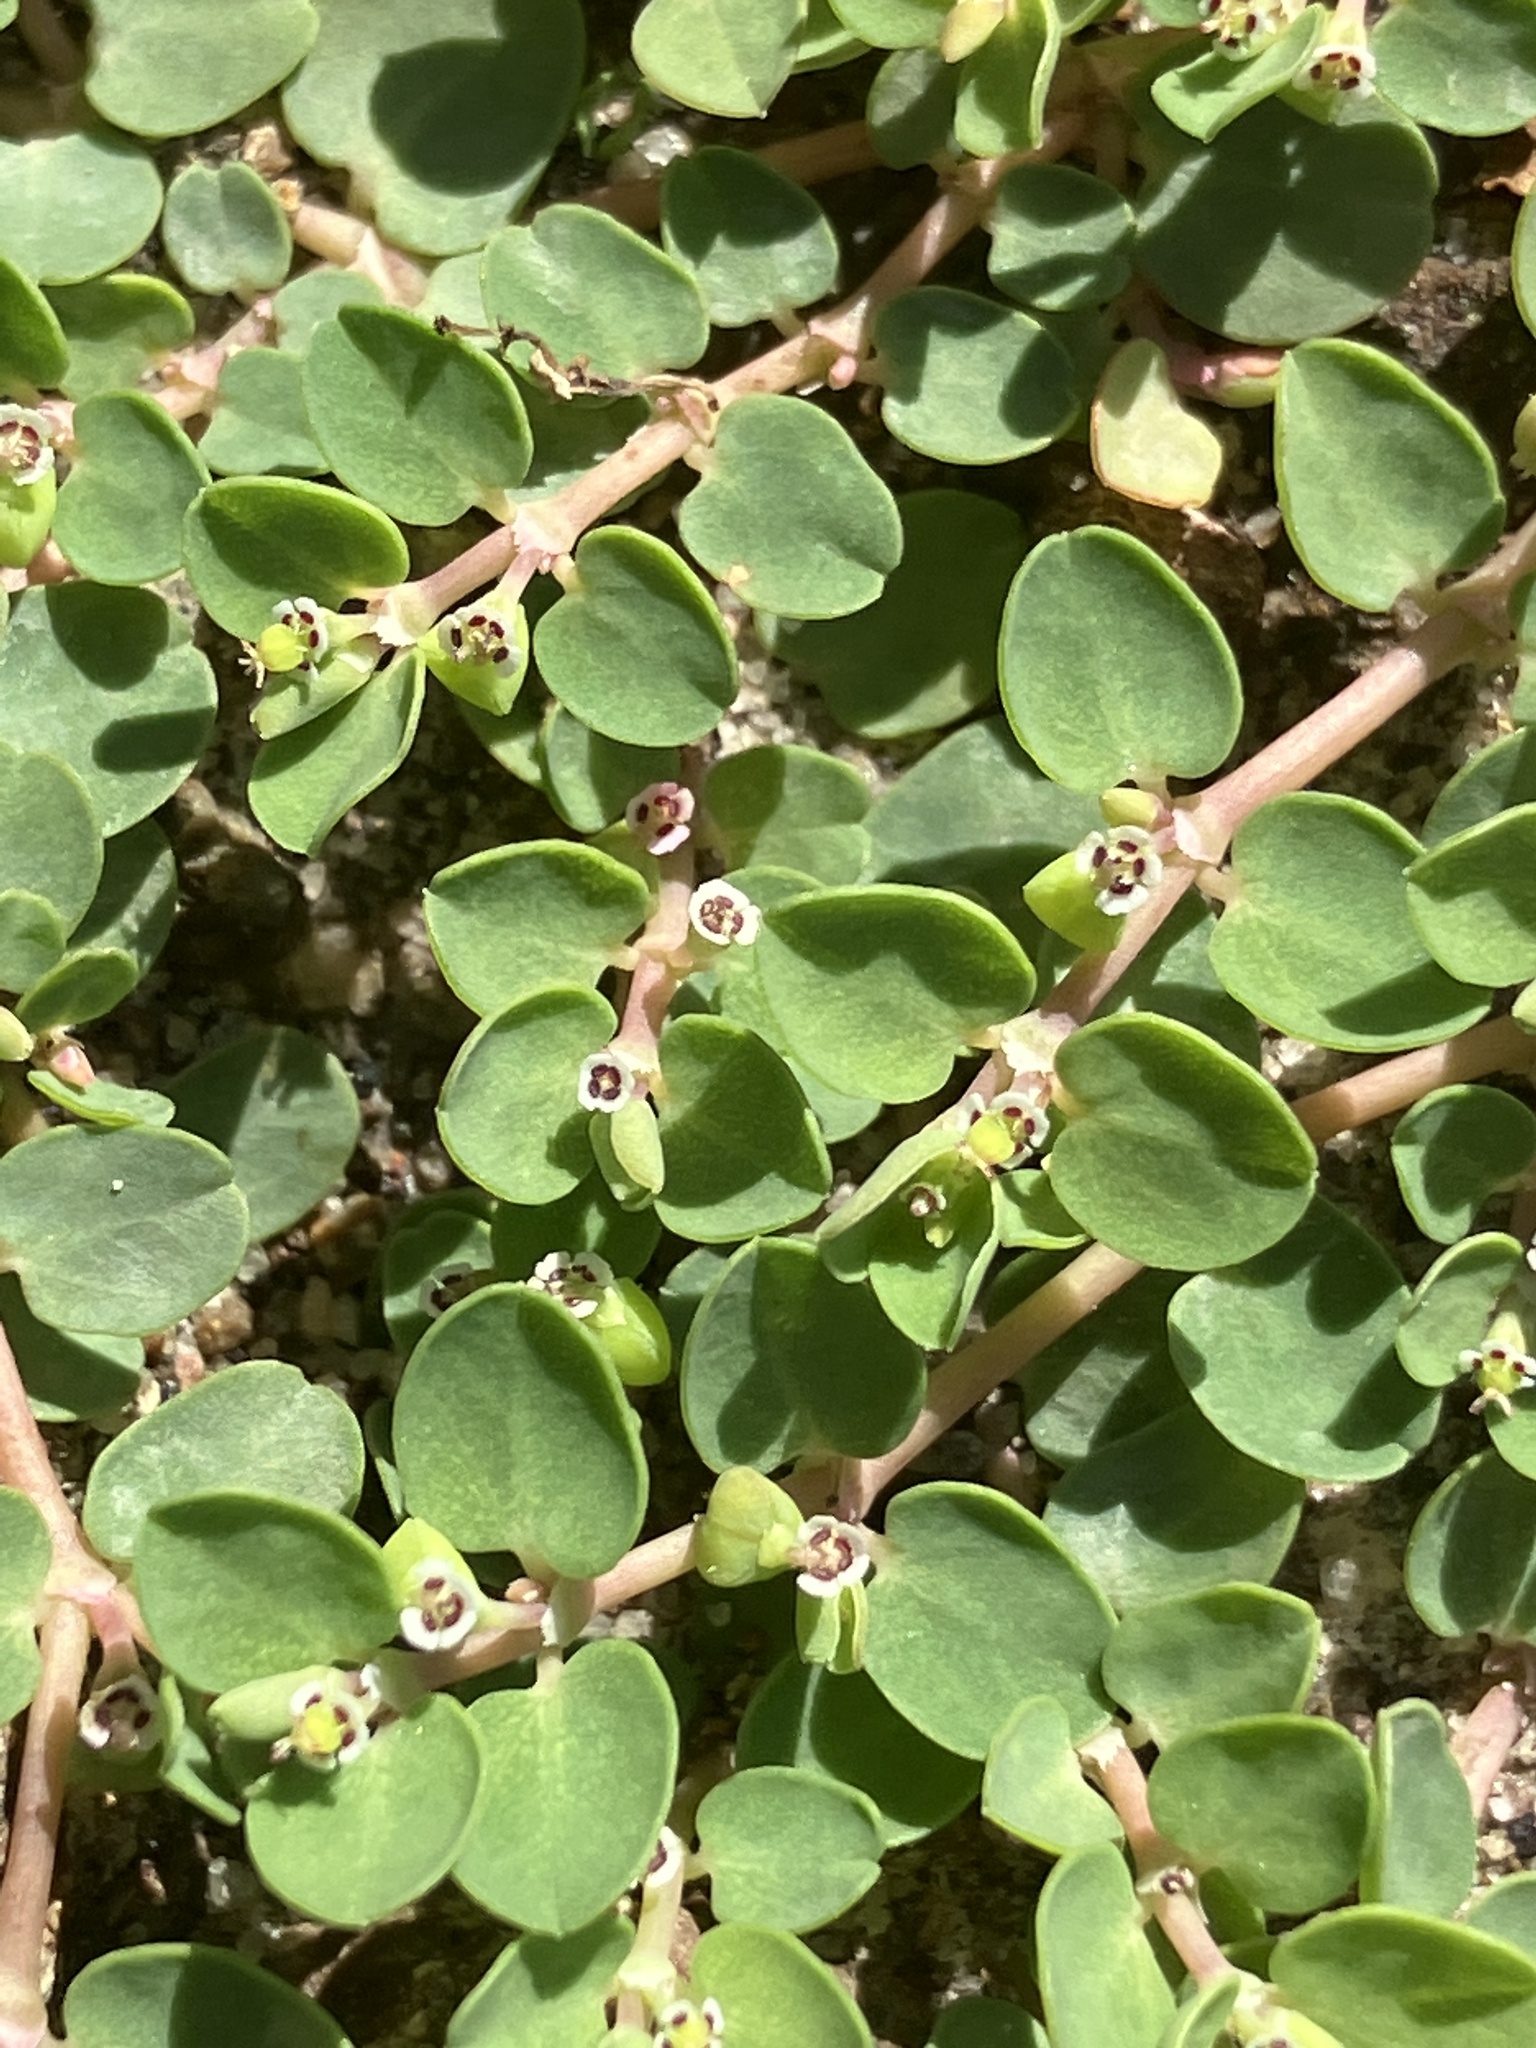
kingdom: Plantae
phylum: Tracheophyta
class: Magnoliopsida
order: Malpighiales
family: Euphorbiaceae
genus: Euphorbia
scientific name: Euphorbia serpens
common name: Matted sandmat
